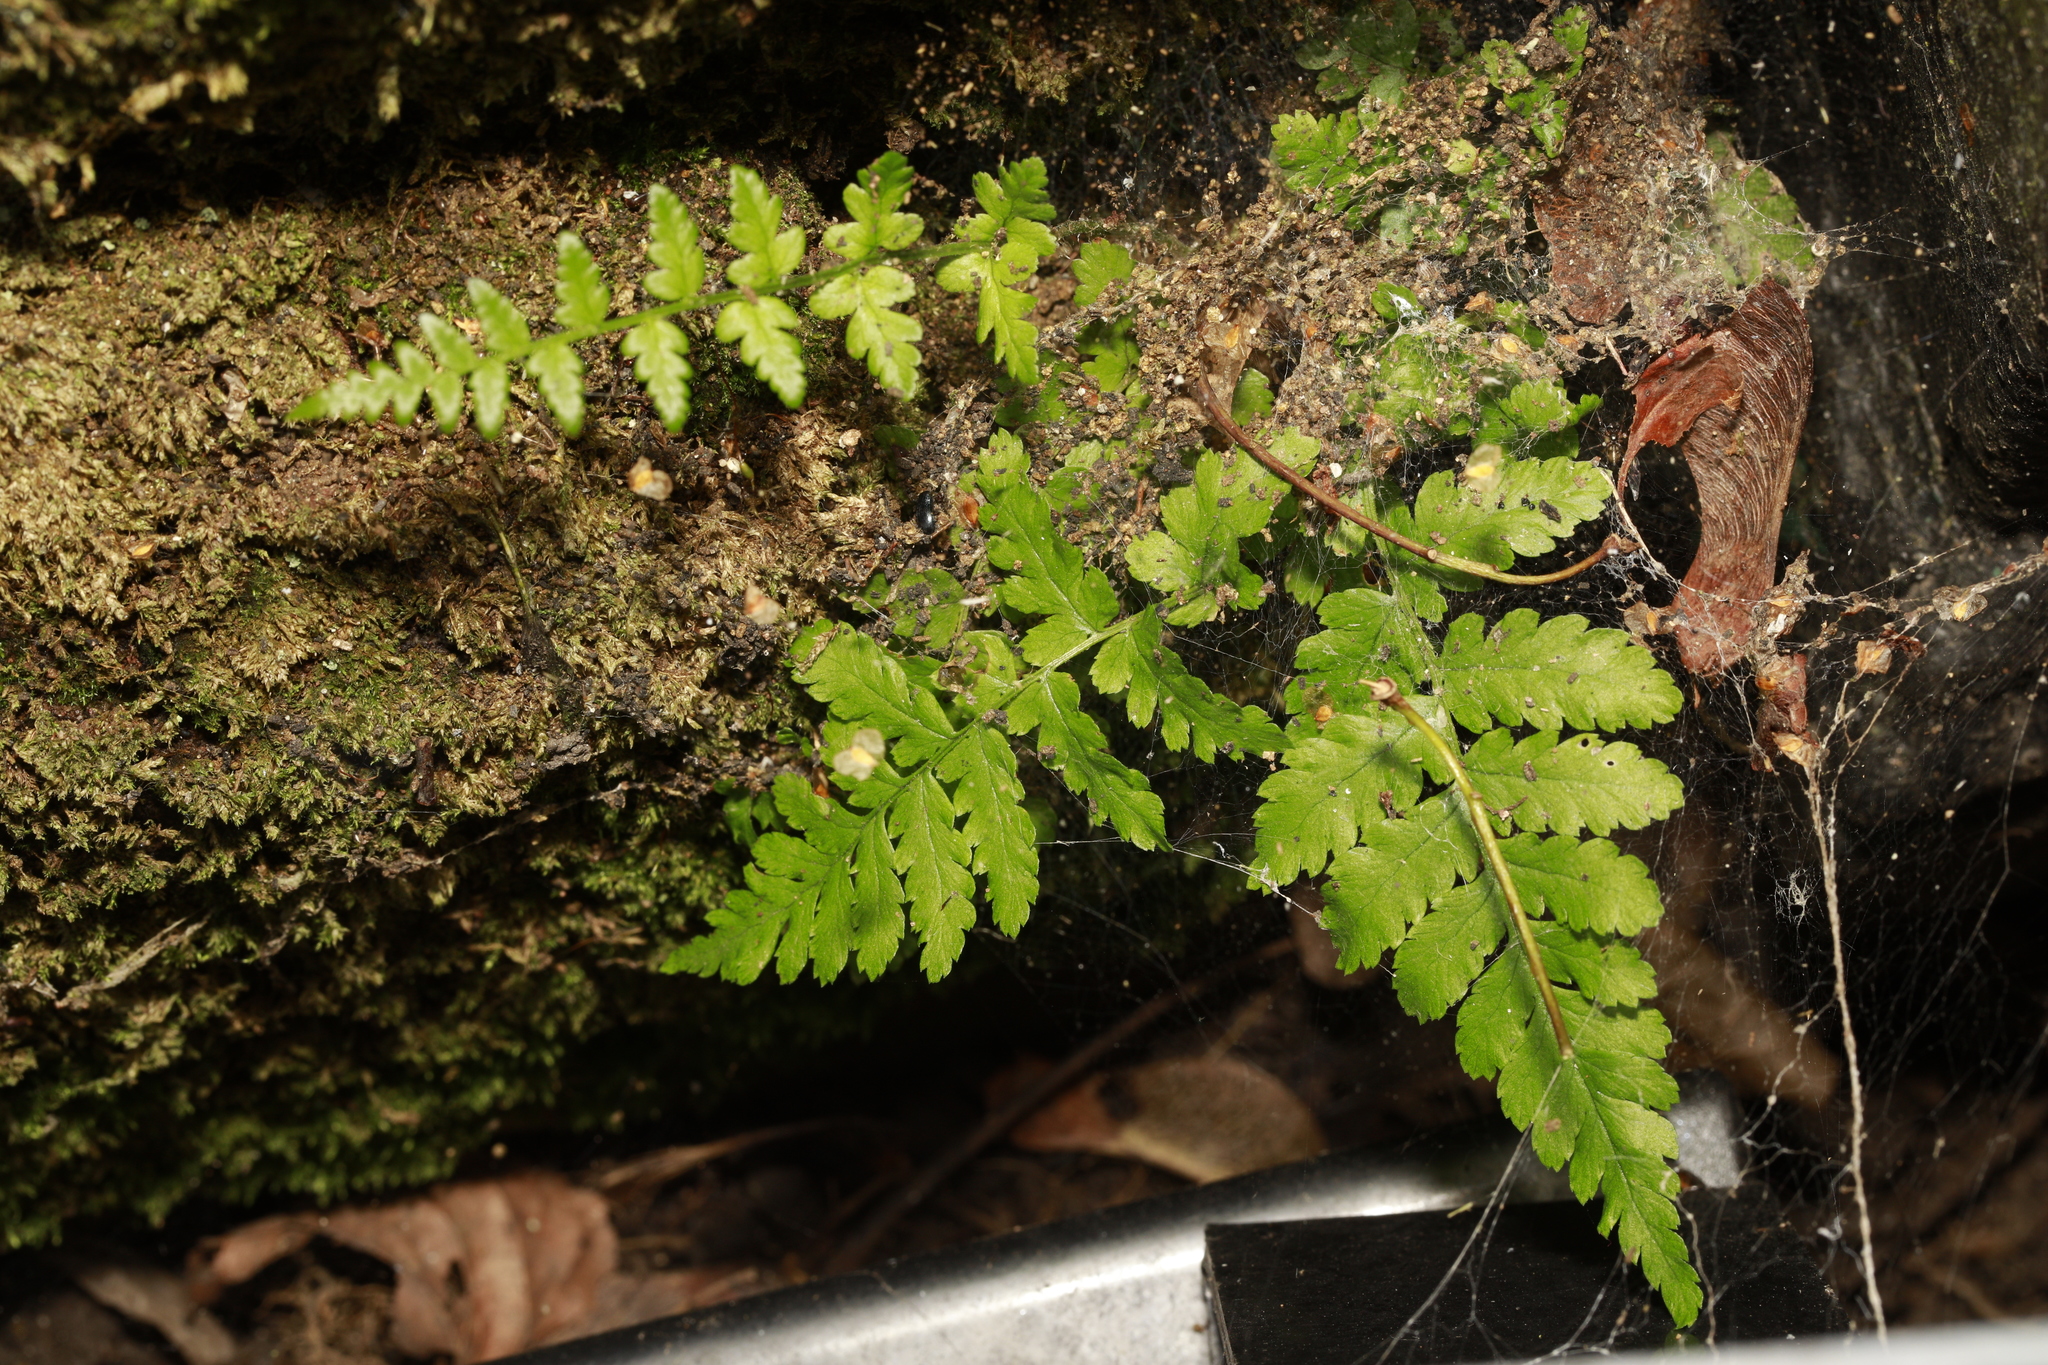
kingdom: Plantae
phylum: Tracheophyta
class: Polypodiopsida
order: Polypodiales
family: Dryopteridaceae
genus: Dryopteris
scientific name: Dryopteris
